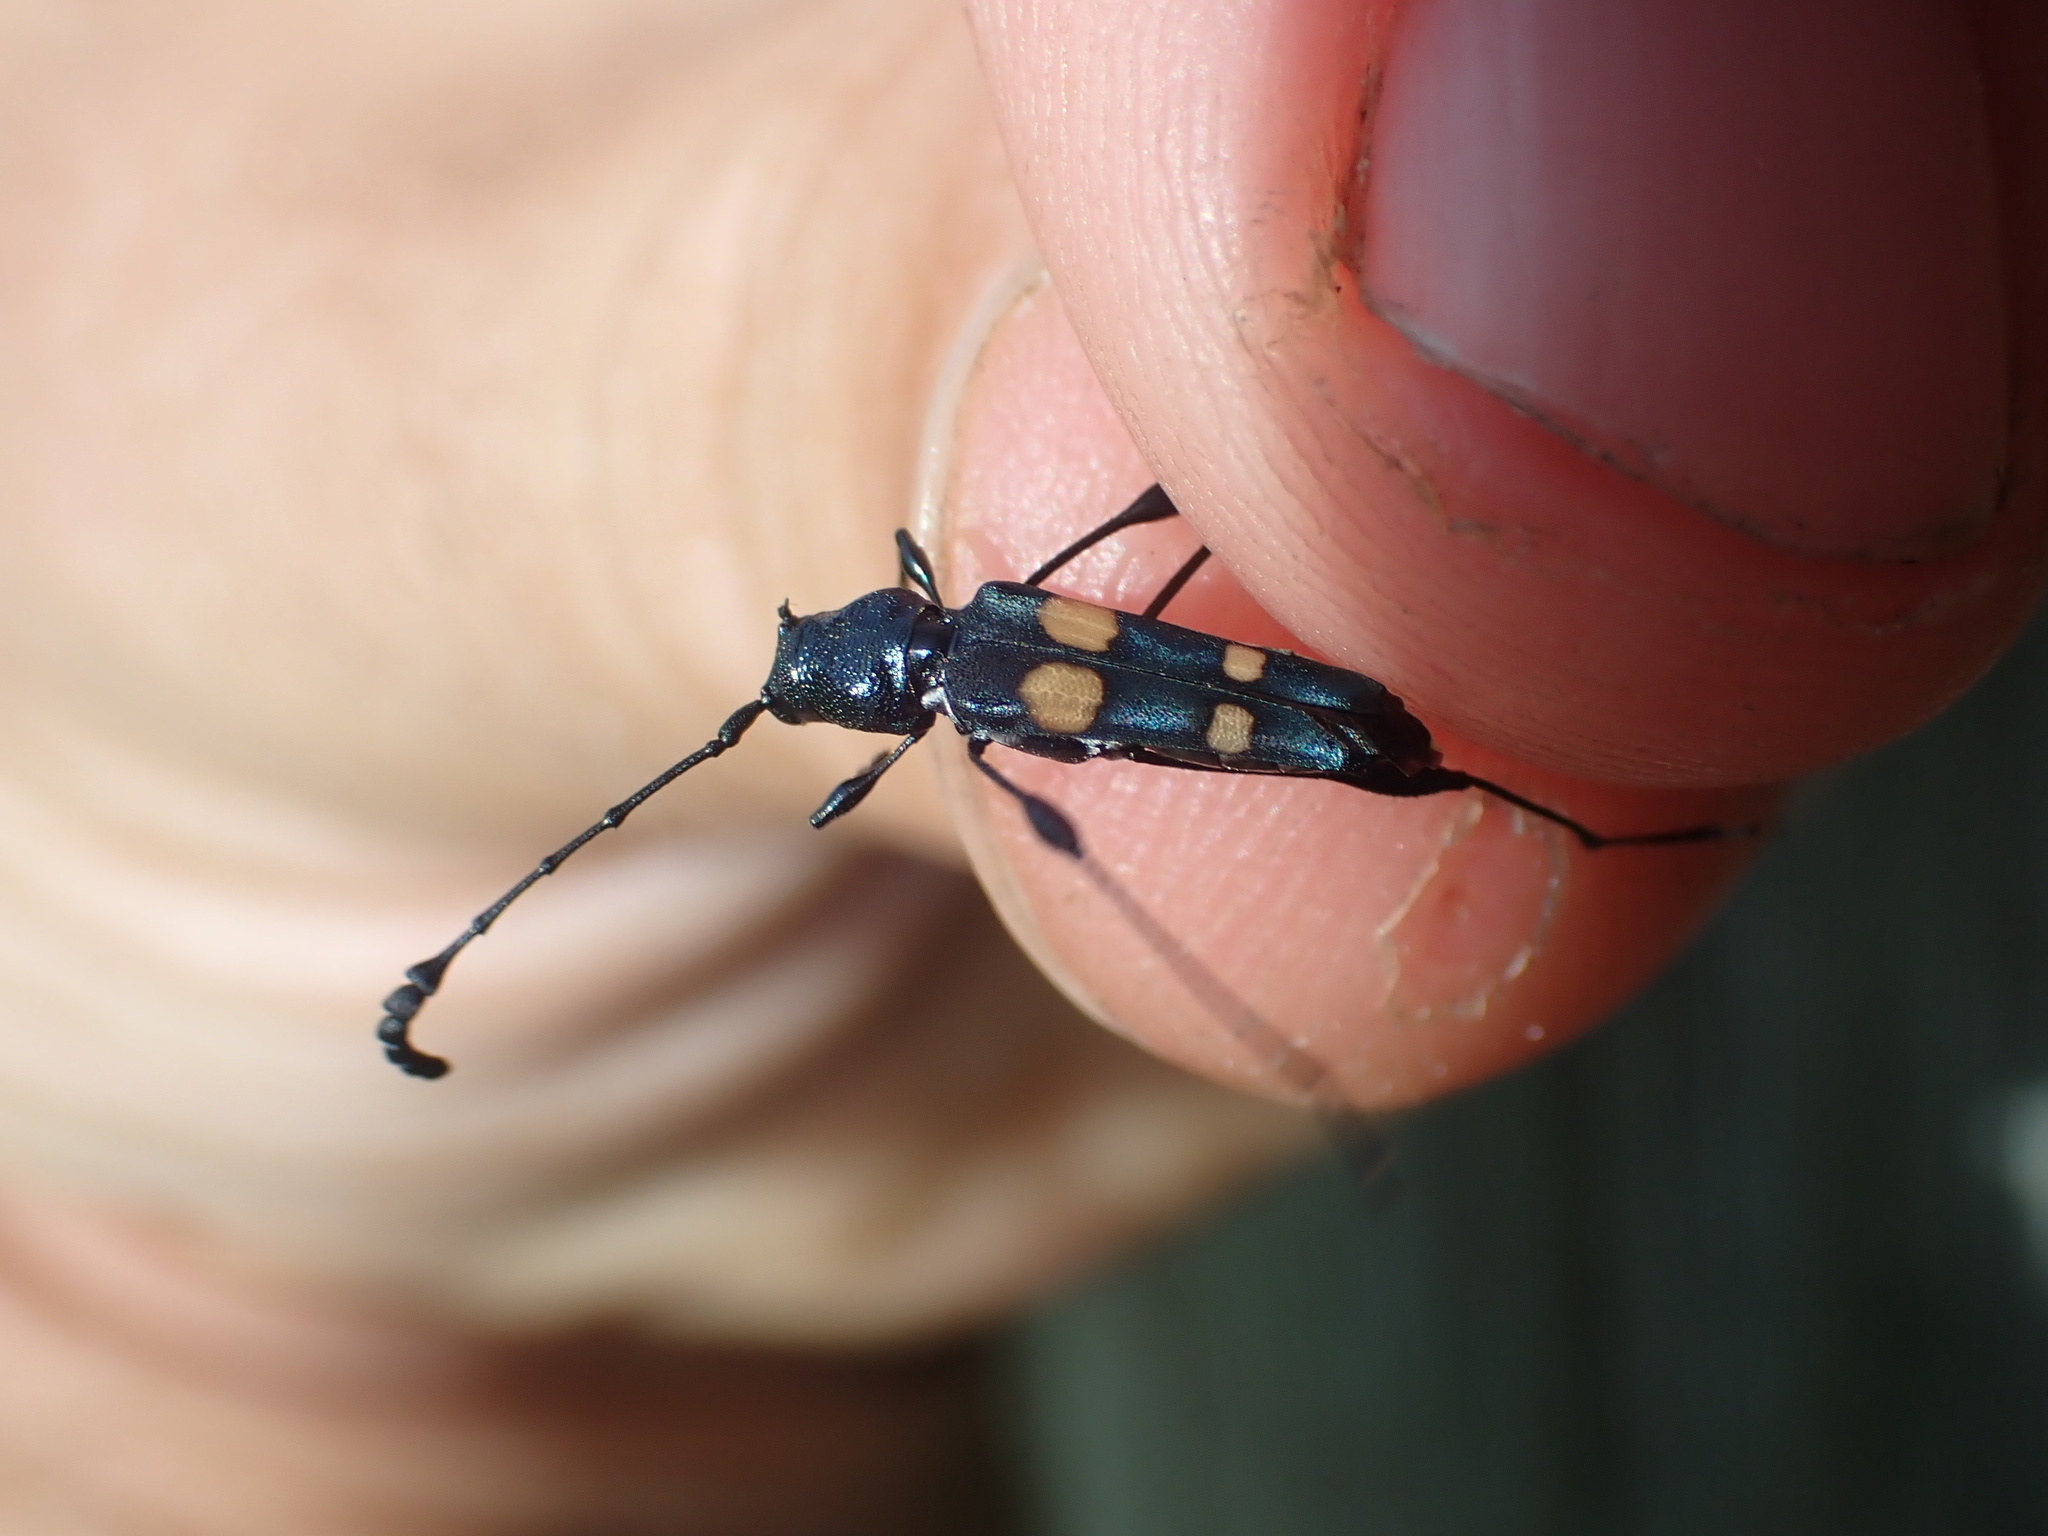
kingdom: Animalia
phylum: Arthropoda
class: Insecta
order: Coleoptera
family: Cerambycidae
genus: Agaleptus
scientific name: Agaleptus quadrinotatus
